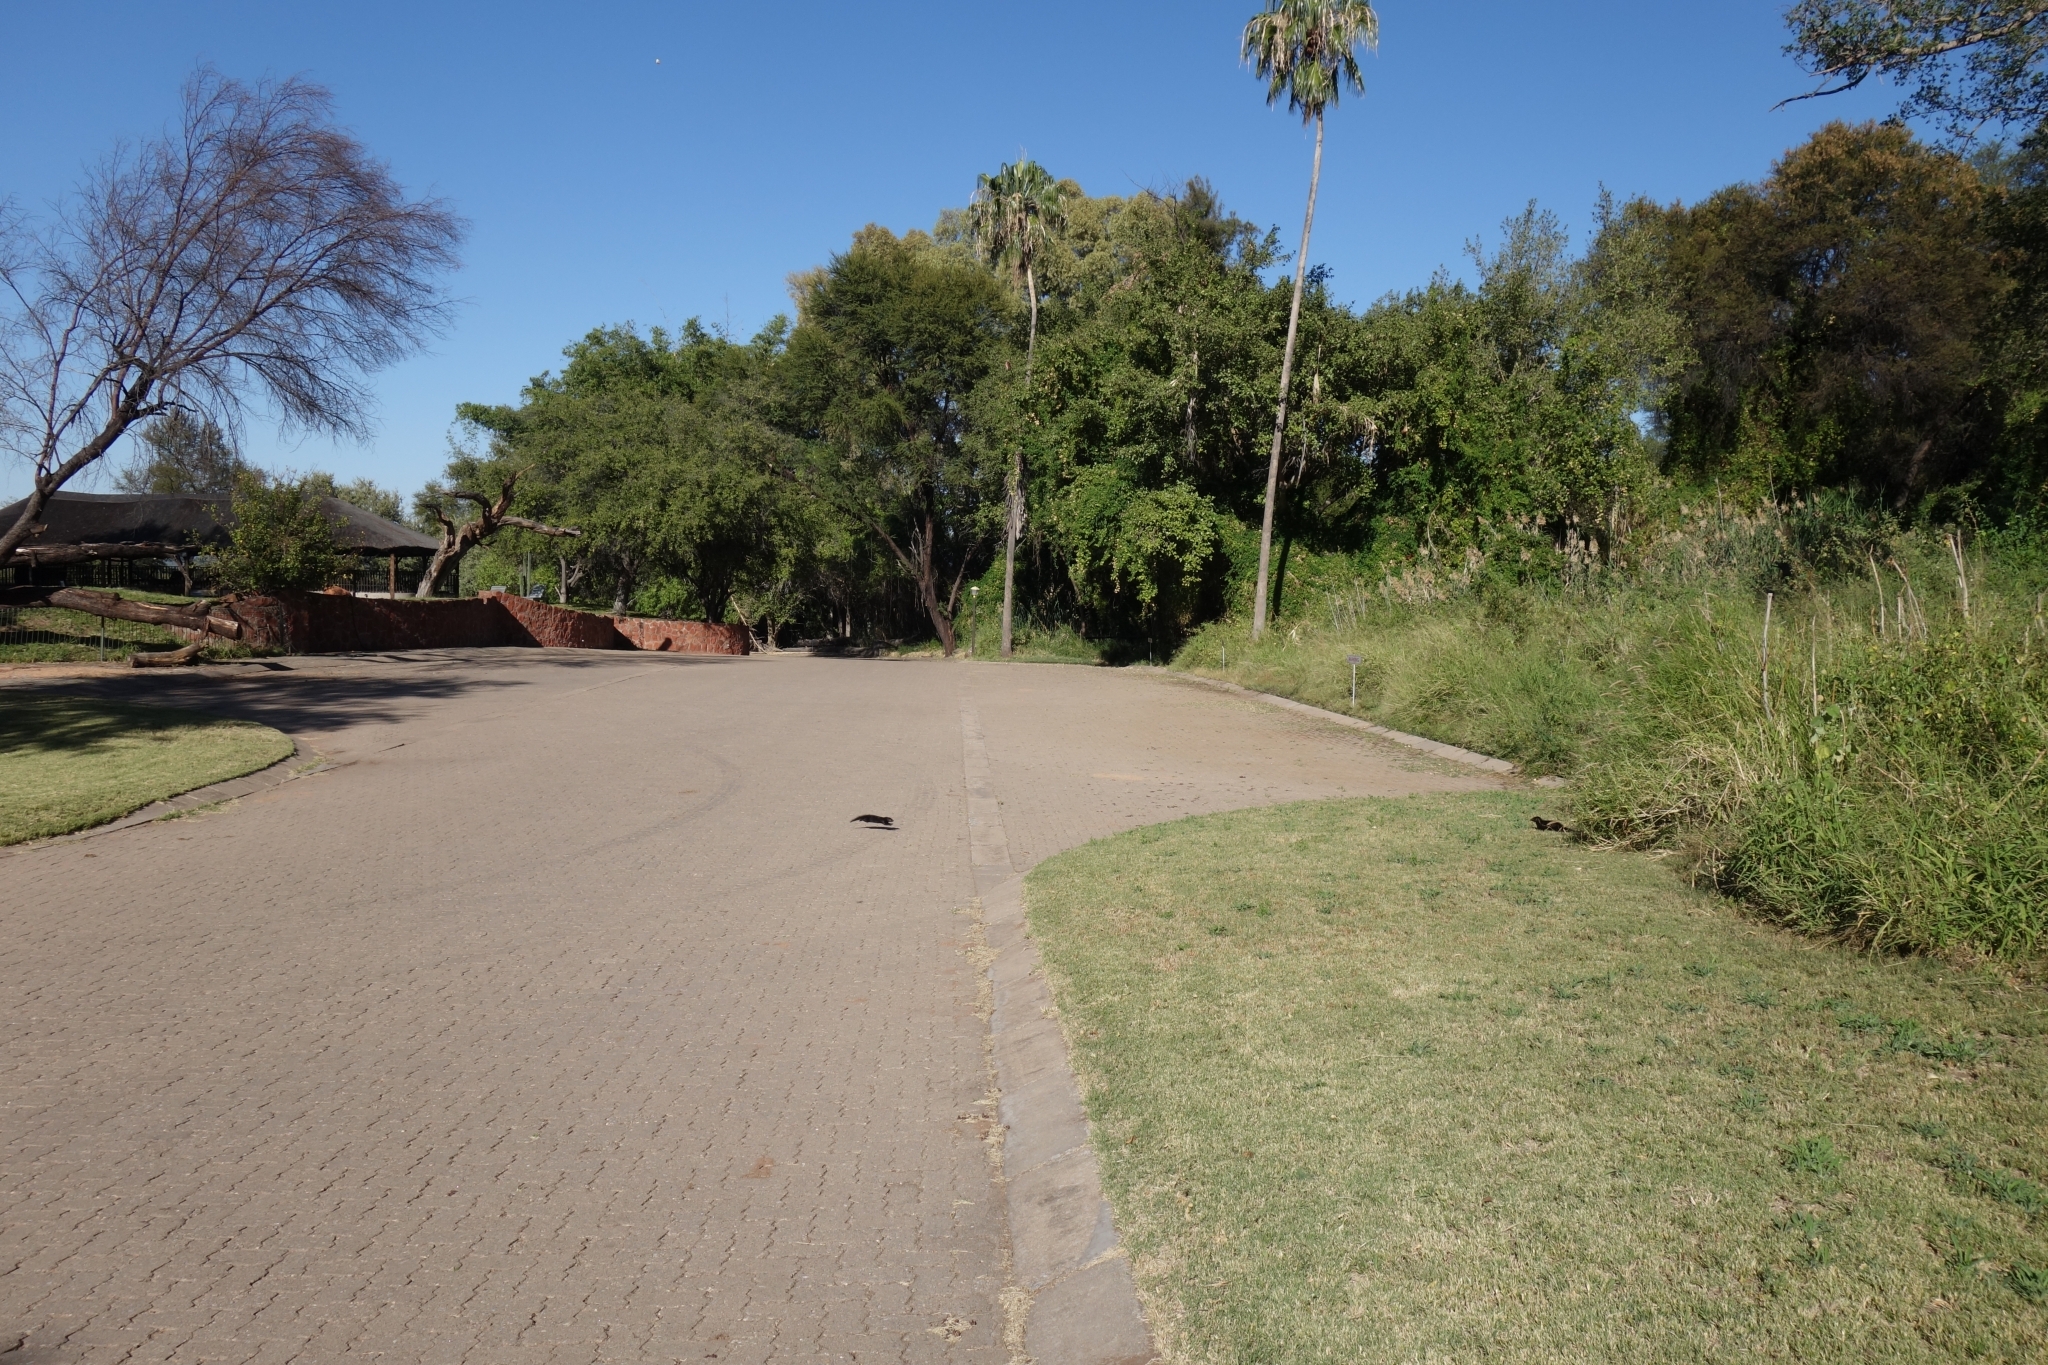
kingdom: Animalia
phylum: Chordata
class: Mammalia
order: Carnivora
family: Herpestidae
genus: Helogale
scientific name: Helogale parvula
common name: Common dwarf mongoose
